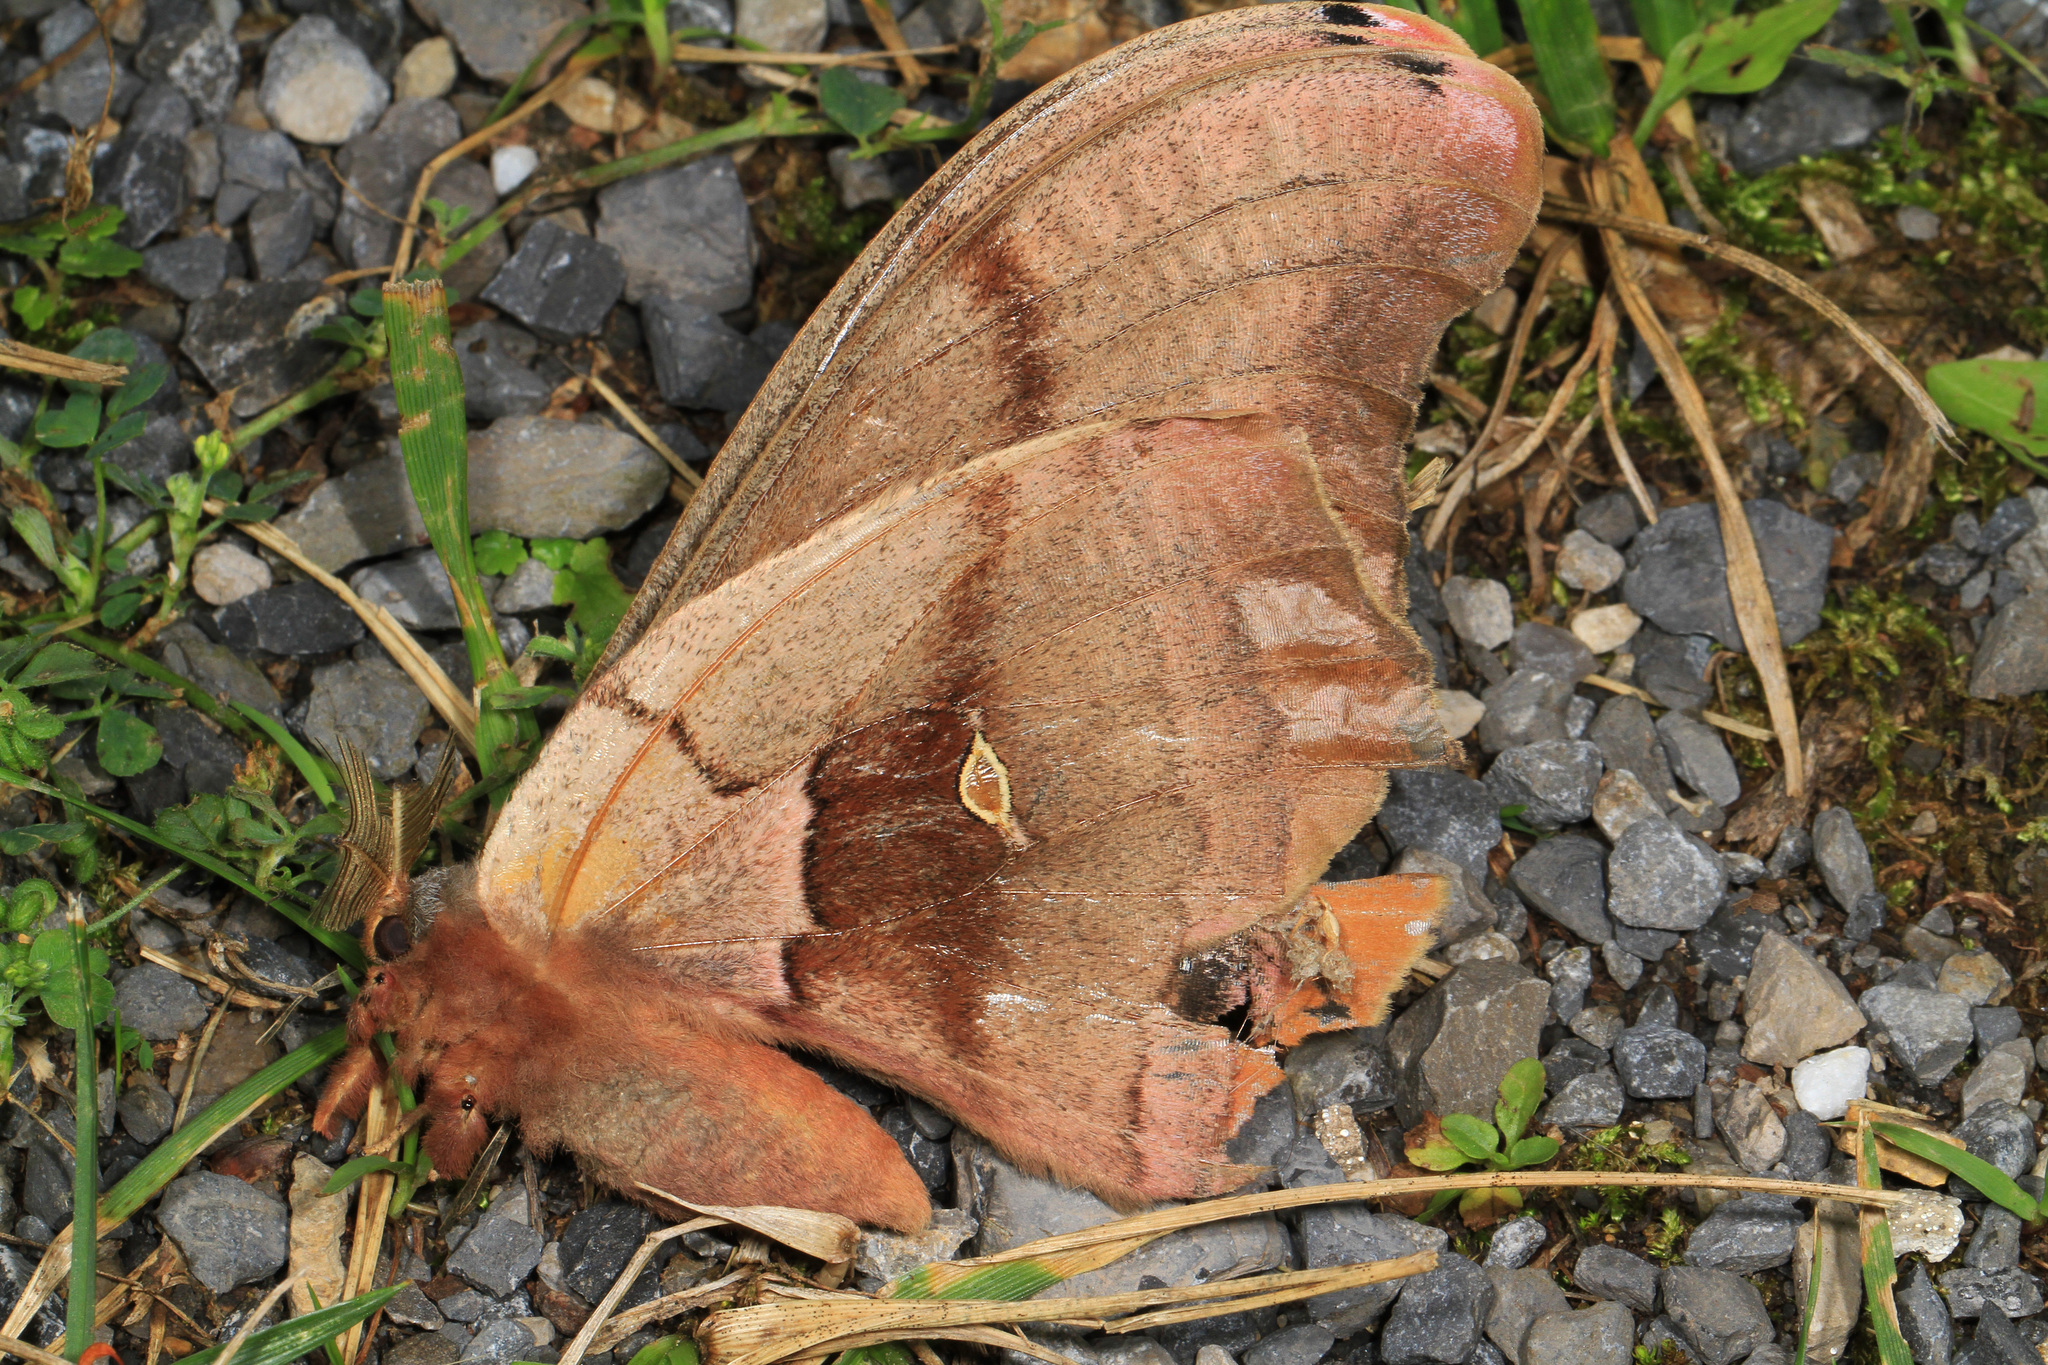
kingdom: Animalia
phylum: Arthropoda
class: Insecta
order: Lepidoptera
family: Saturniidae
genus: Antheraea
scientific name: Antheraea polyphemus
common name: Polyphemus moth
